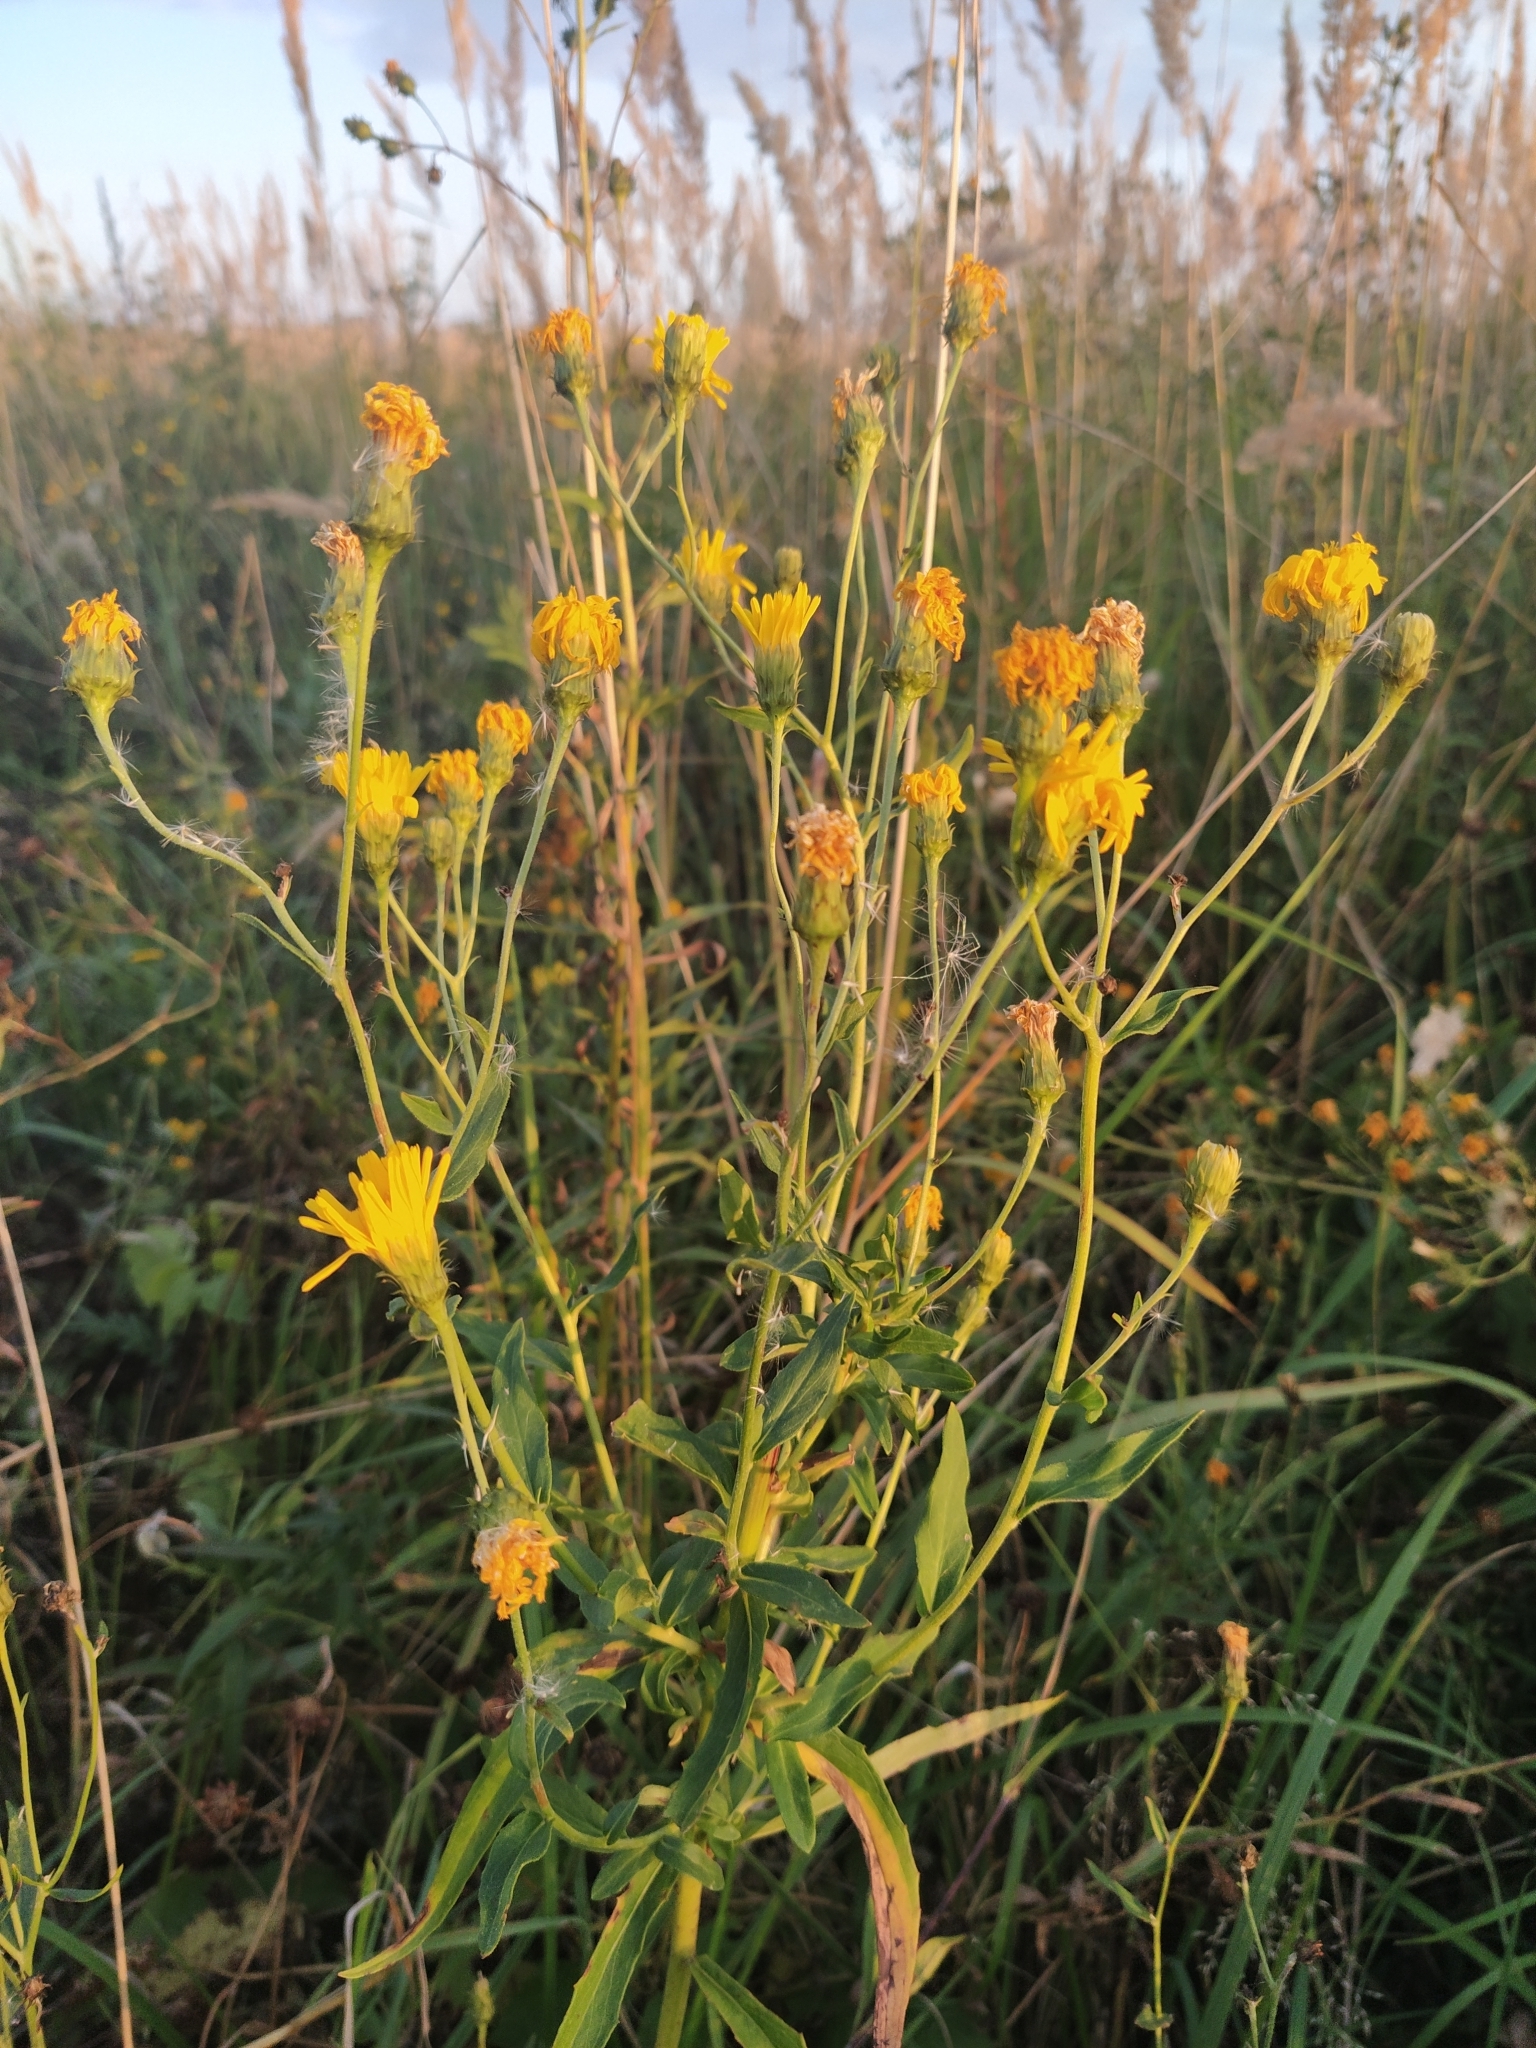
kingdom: Plantae
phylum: Tracheophyta
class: Magnoliopsida
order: Asterales
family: Asteraceae
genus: Hieracium
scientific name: Hieracium umbellatum
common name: Northern hawkweed
